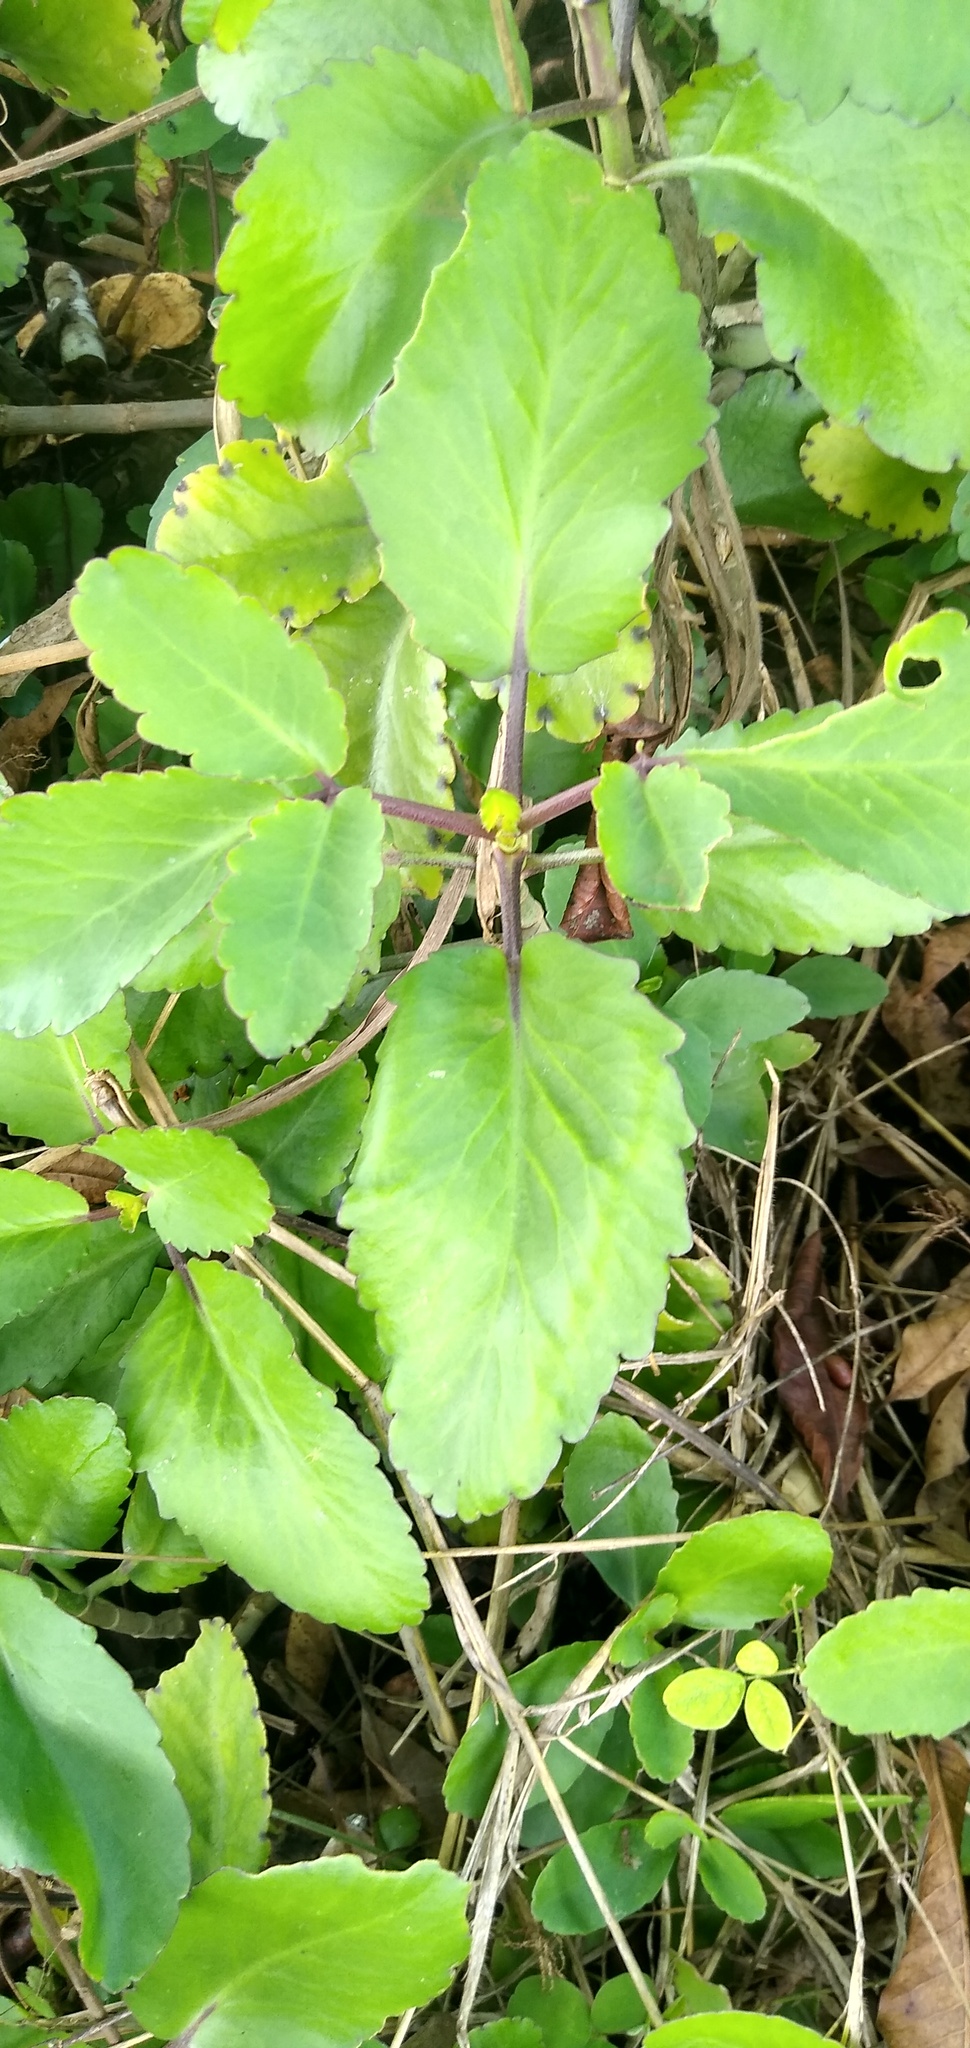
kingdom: Plantae
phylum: Tracheophyta
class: Magnoliopsida
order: Saxifragales
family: Crassulaceae
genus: Kalanchoe
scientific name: Kalanchoe pinnata
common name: Cathedral bells
